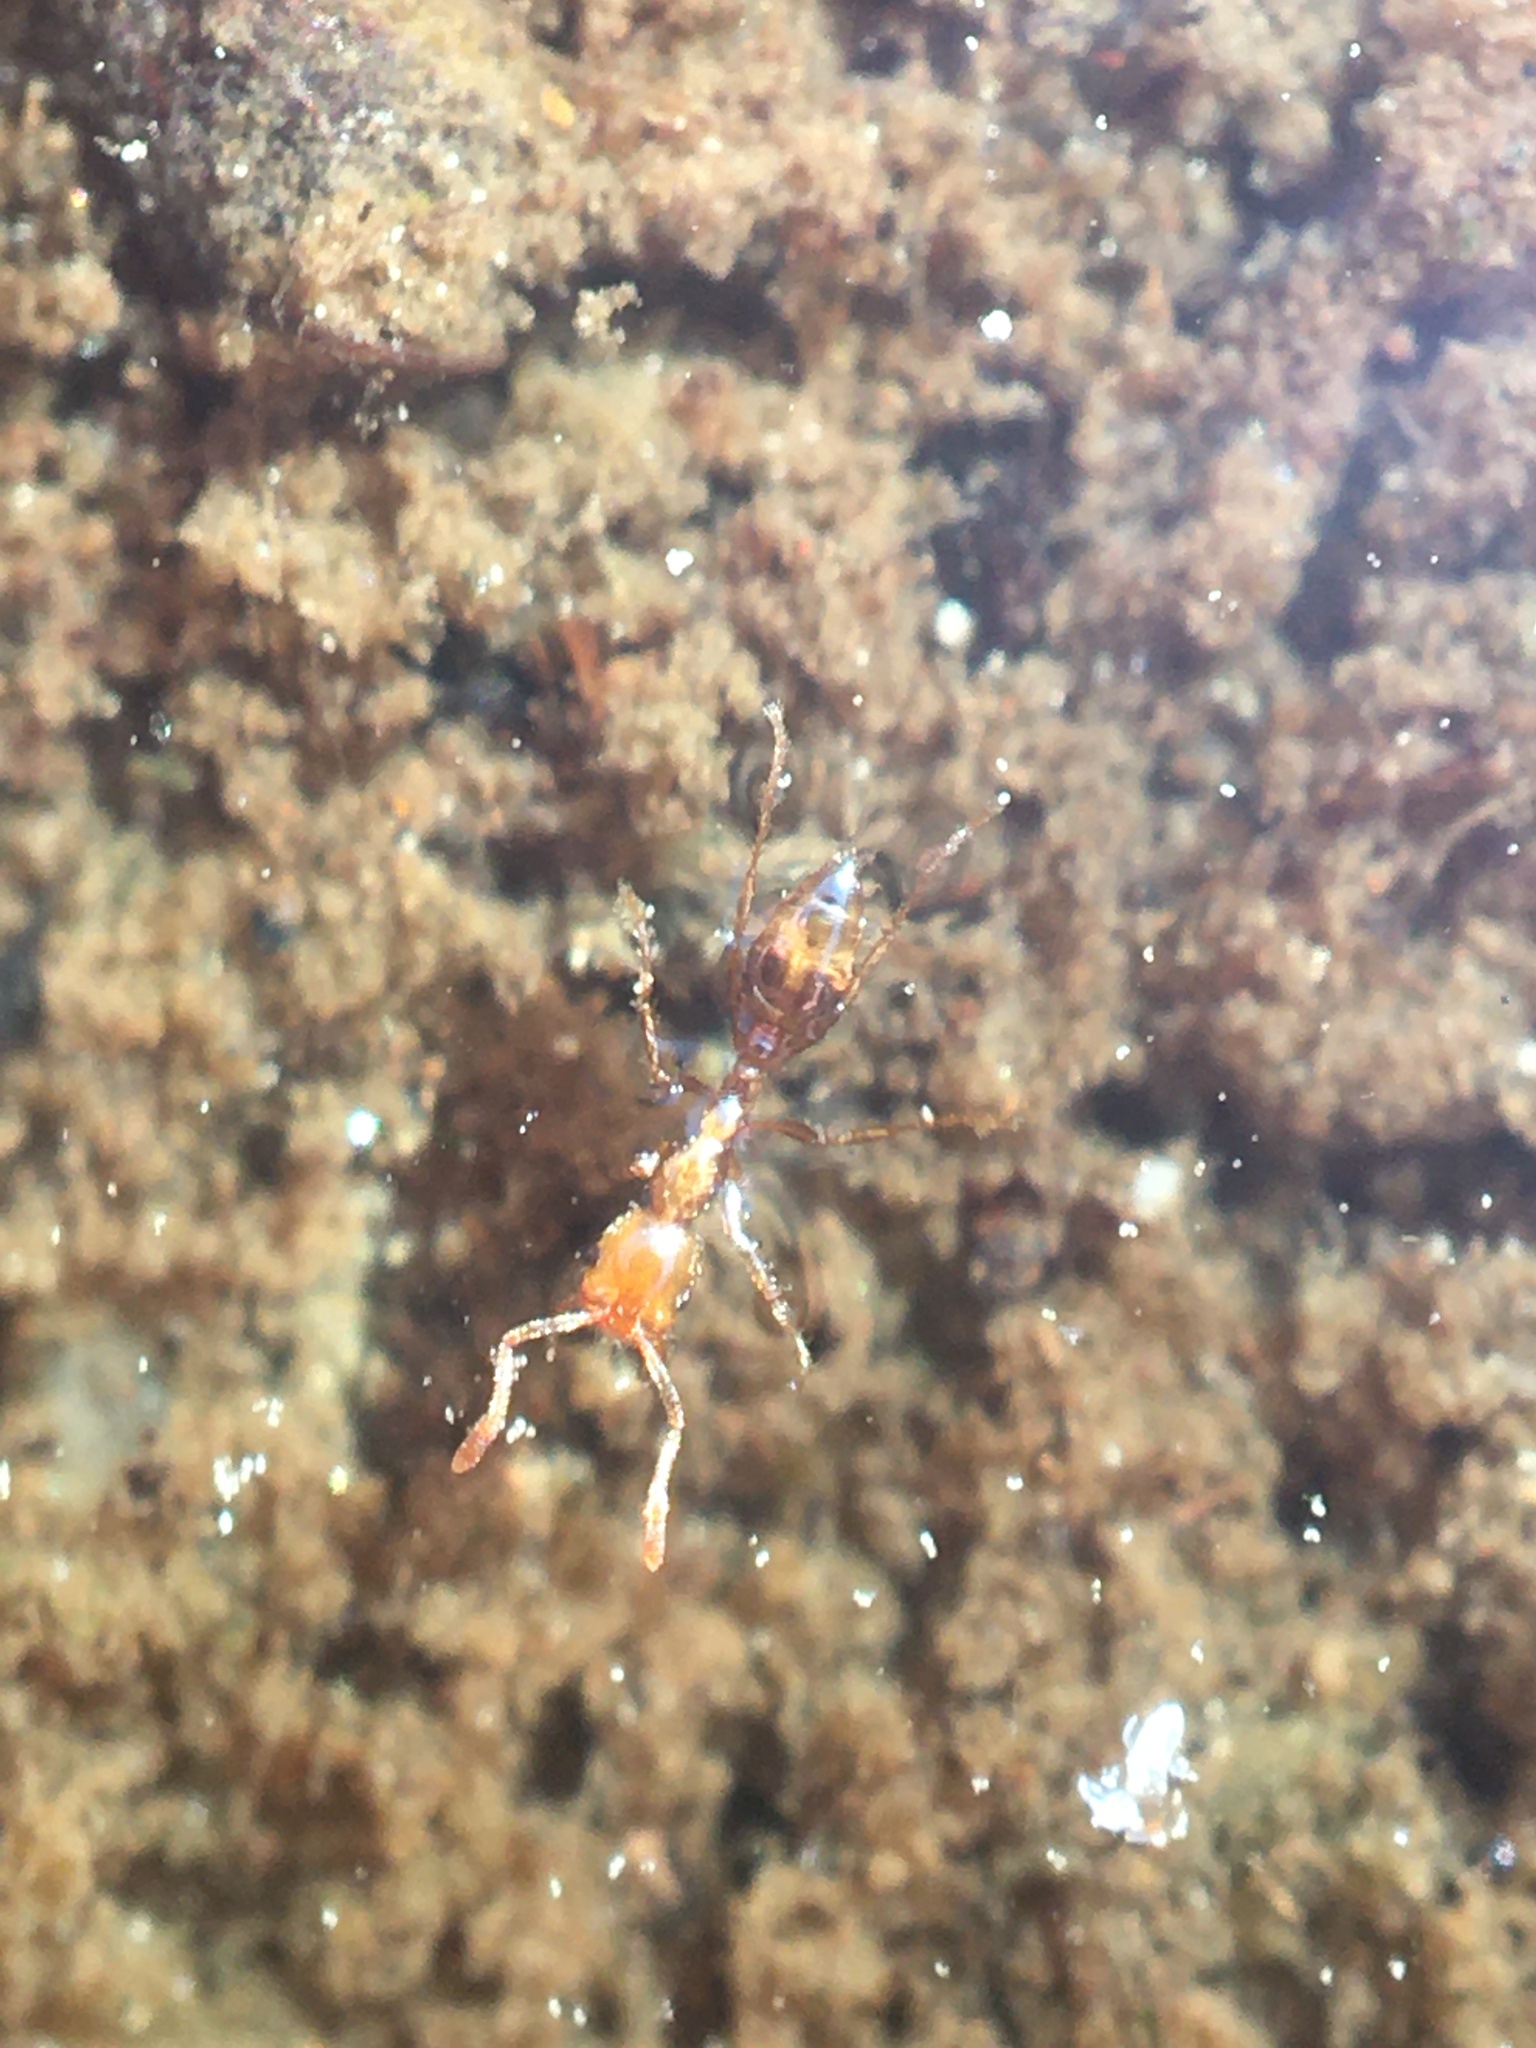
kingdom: Animalia
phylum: Arthropoda
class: Insecta
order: Hymenoptera
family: Formicidae
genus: Solenopsis
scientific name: Solenopsis invicta
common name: Red imported fire ant
